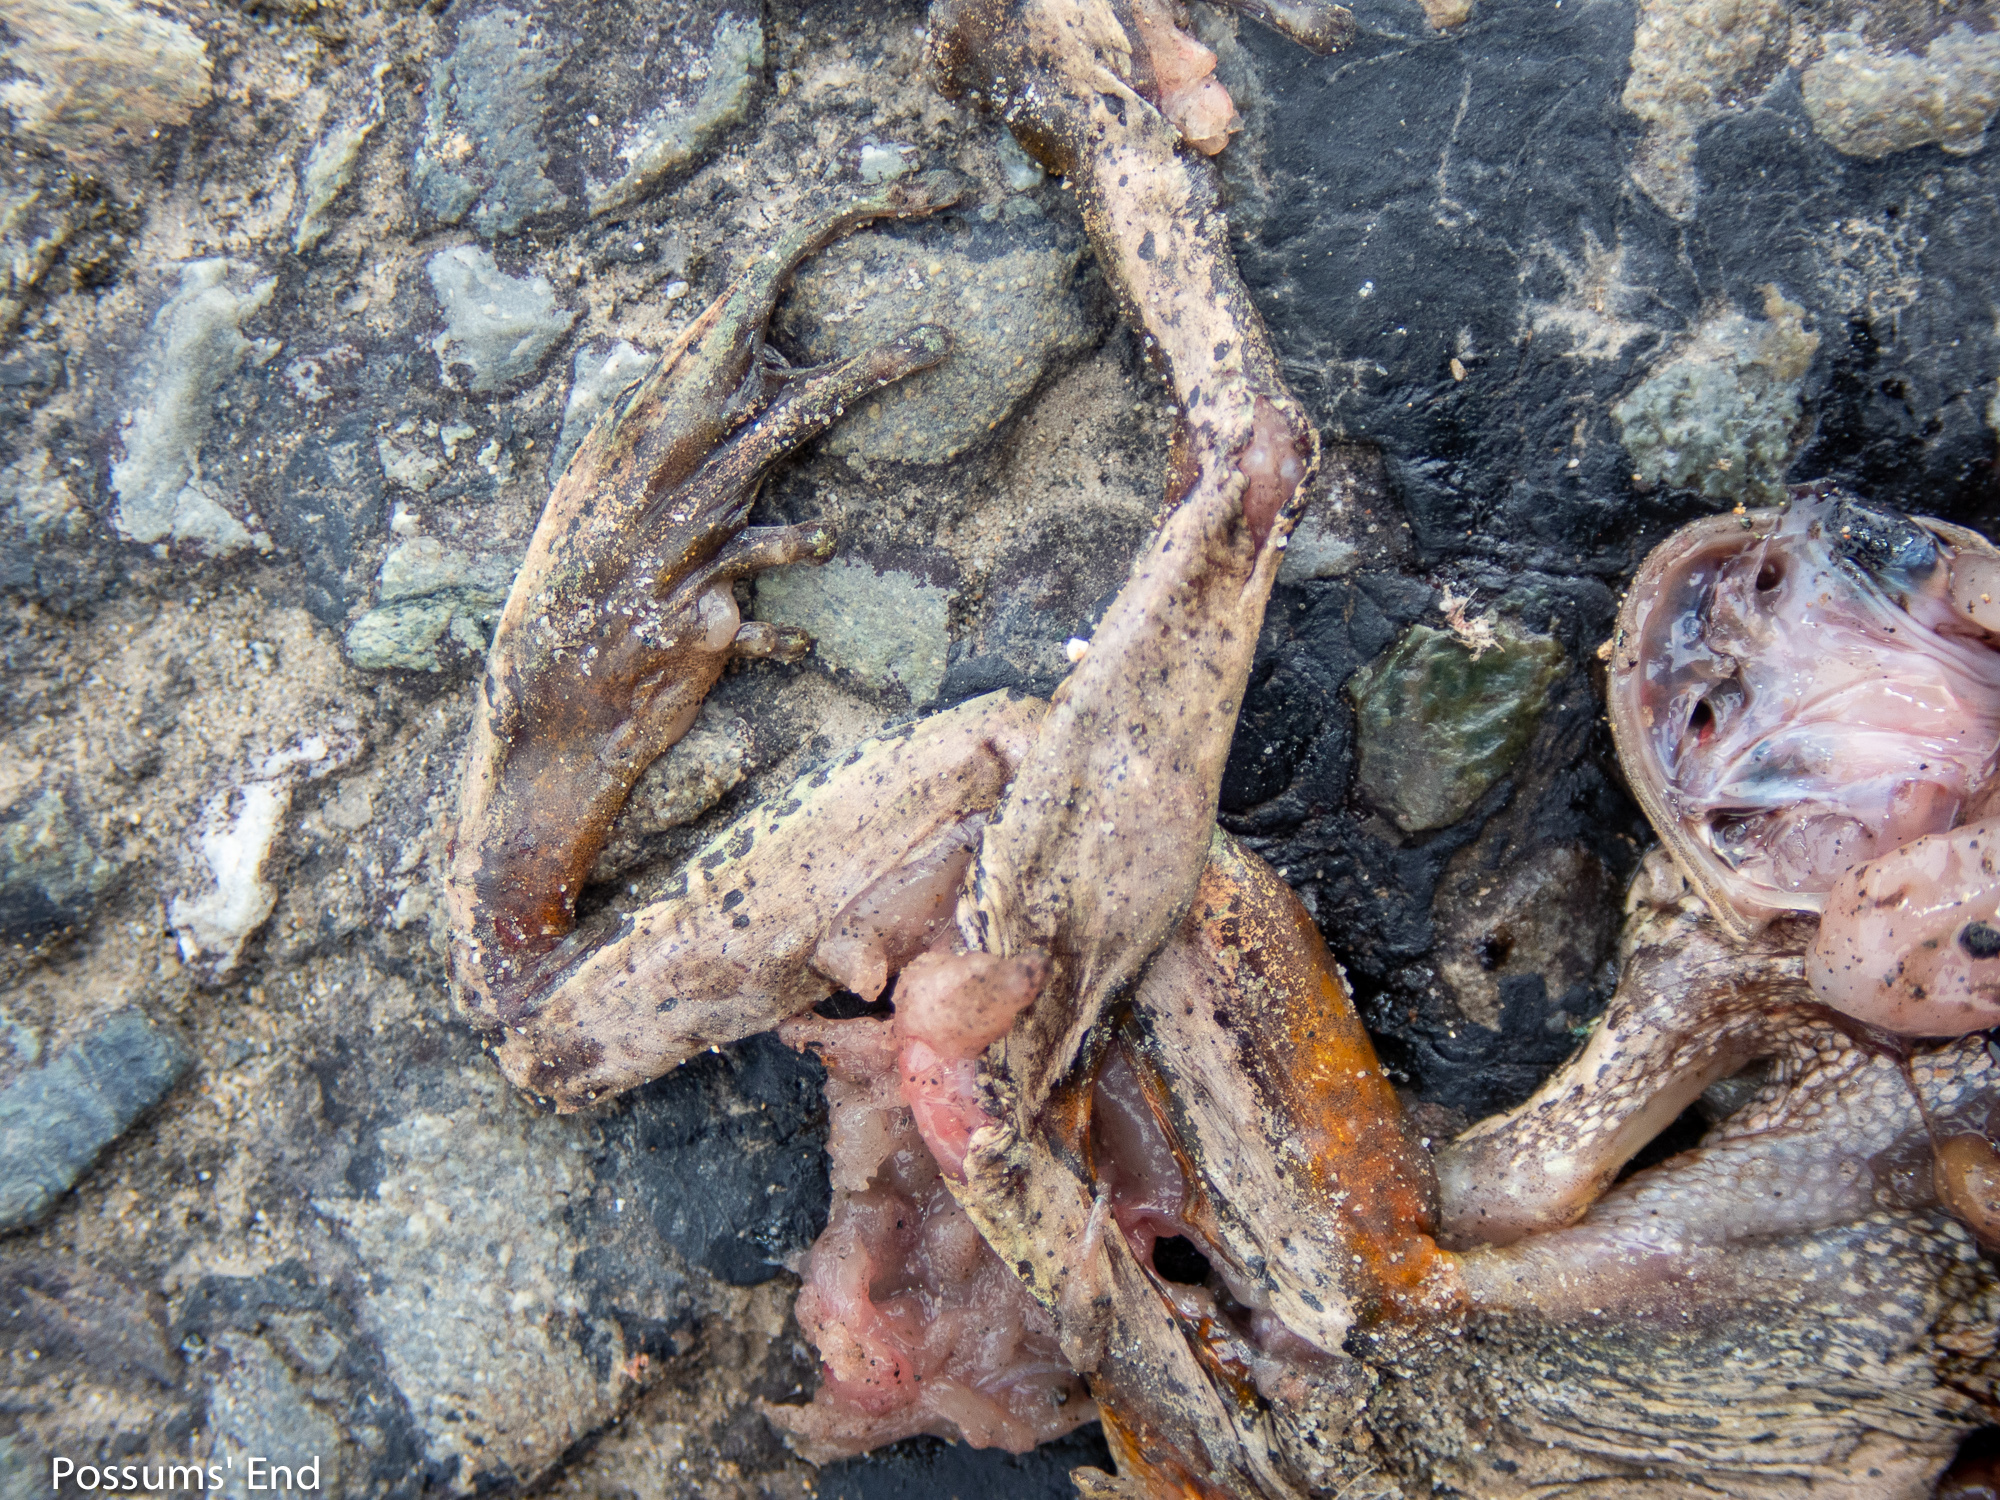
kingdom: Animalia
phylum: Chordata
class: Amphibia
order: Anura
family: Pelodryadidae
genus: Litoria
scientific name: Litoria ewingii
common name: Southern brown tree frog
